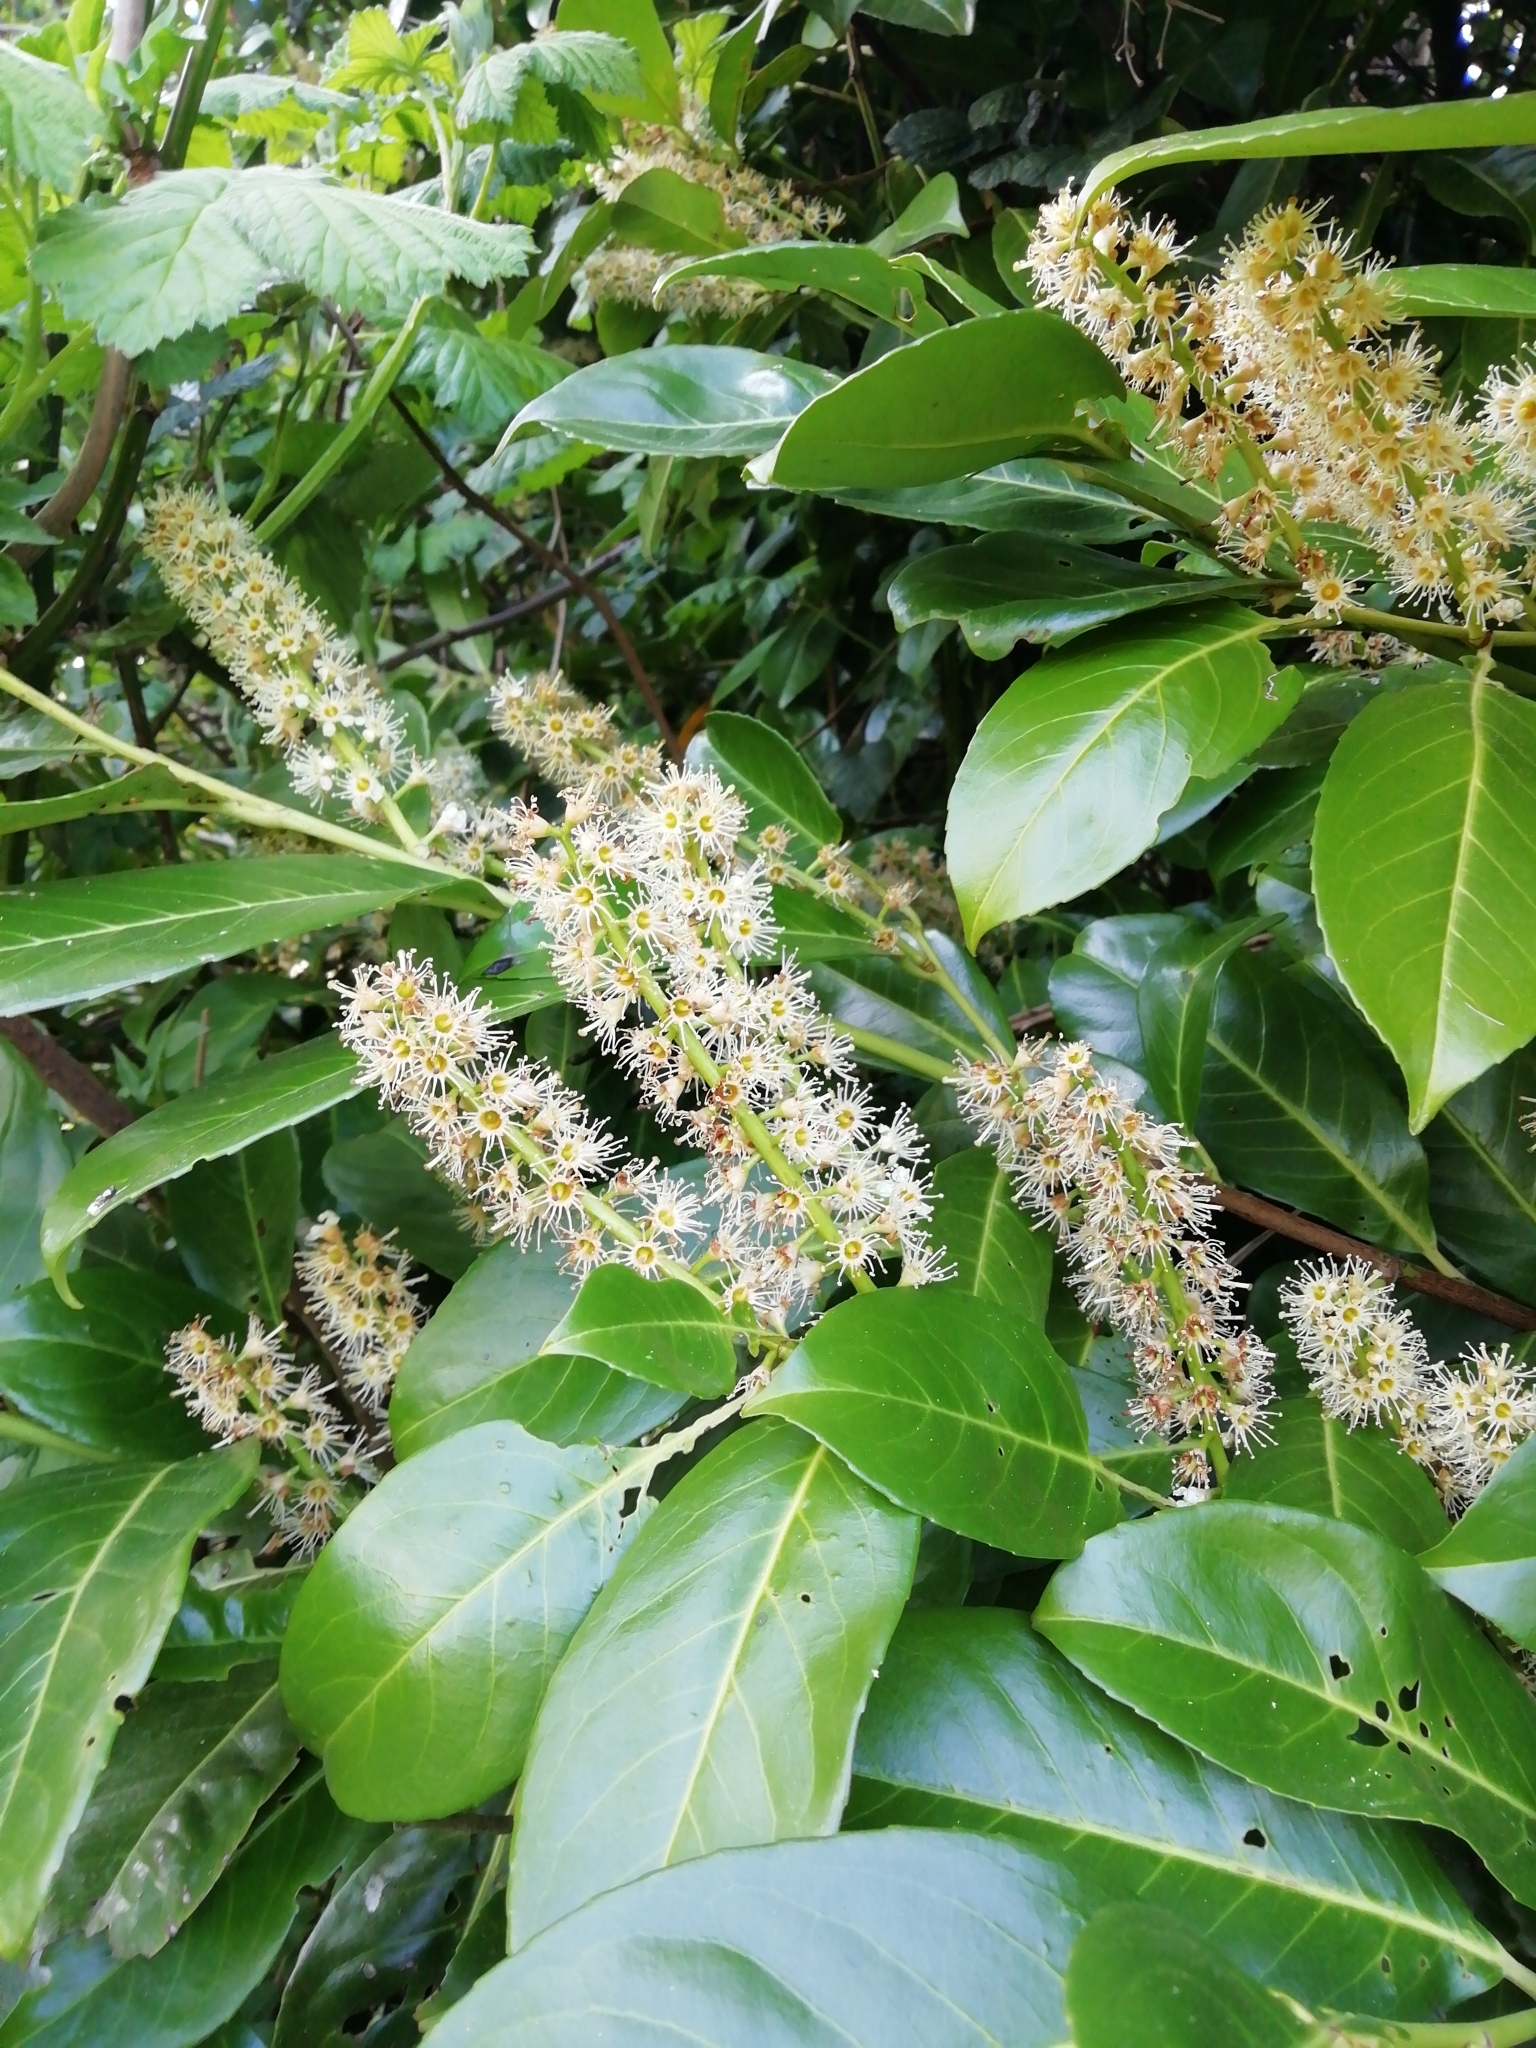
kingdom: Plantae
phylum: Tracheophyta
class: Magnoliopsida
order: Rosales
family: Rosaceae
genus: Prunus
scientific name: Prunus laurocerasus
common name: Cherry laurel
